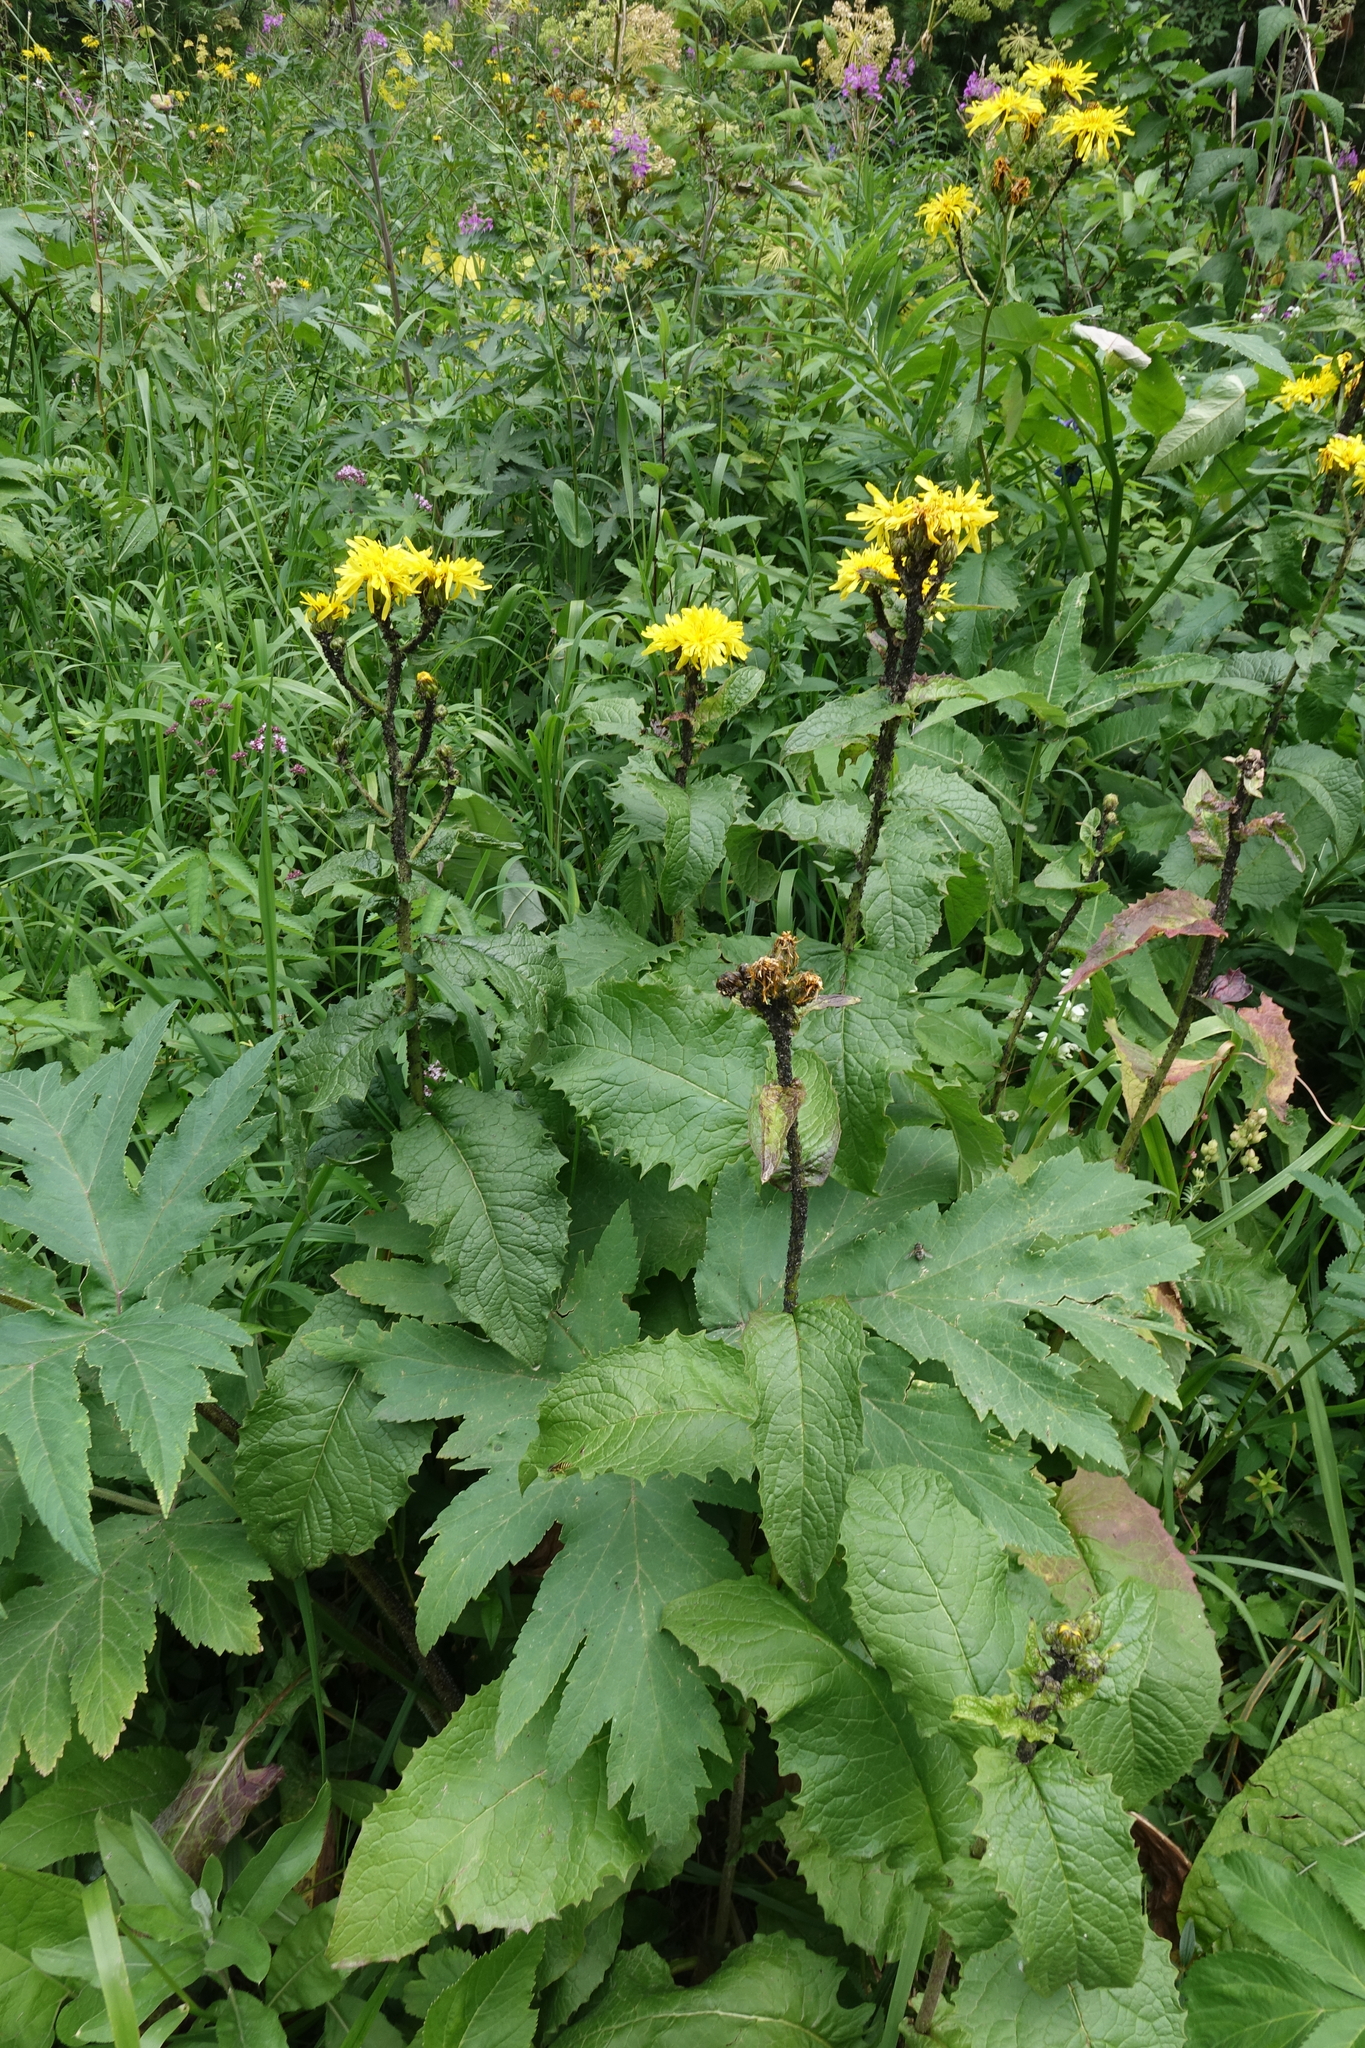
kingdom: Plantae
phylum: Tracheophyta
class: Magnoliopsida
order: Asterales
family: Asteraceae
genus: Crepis
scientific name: Crepis sibirica
